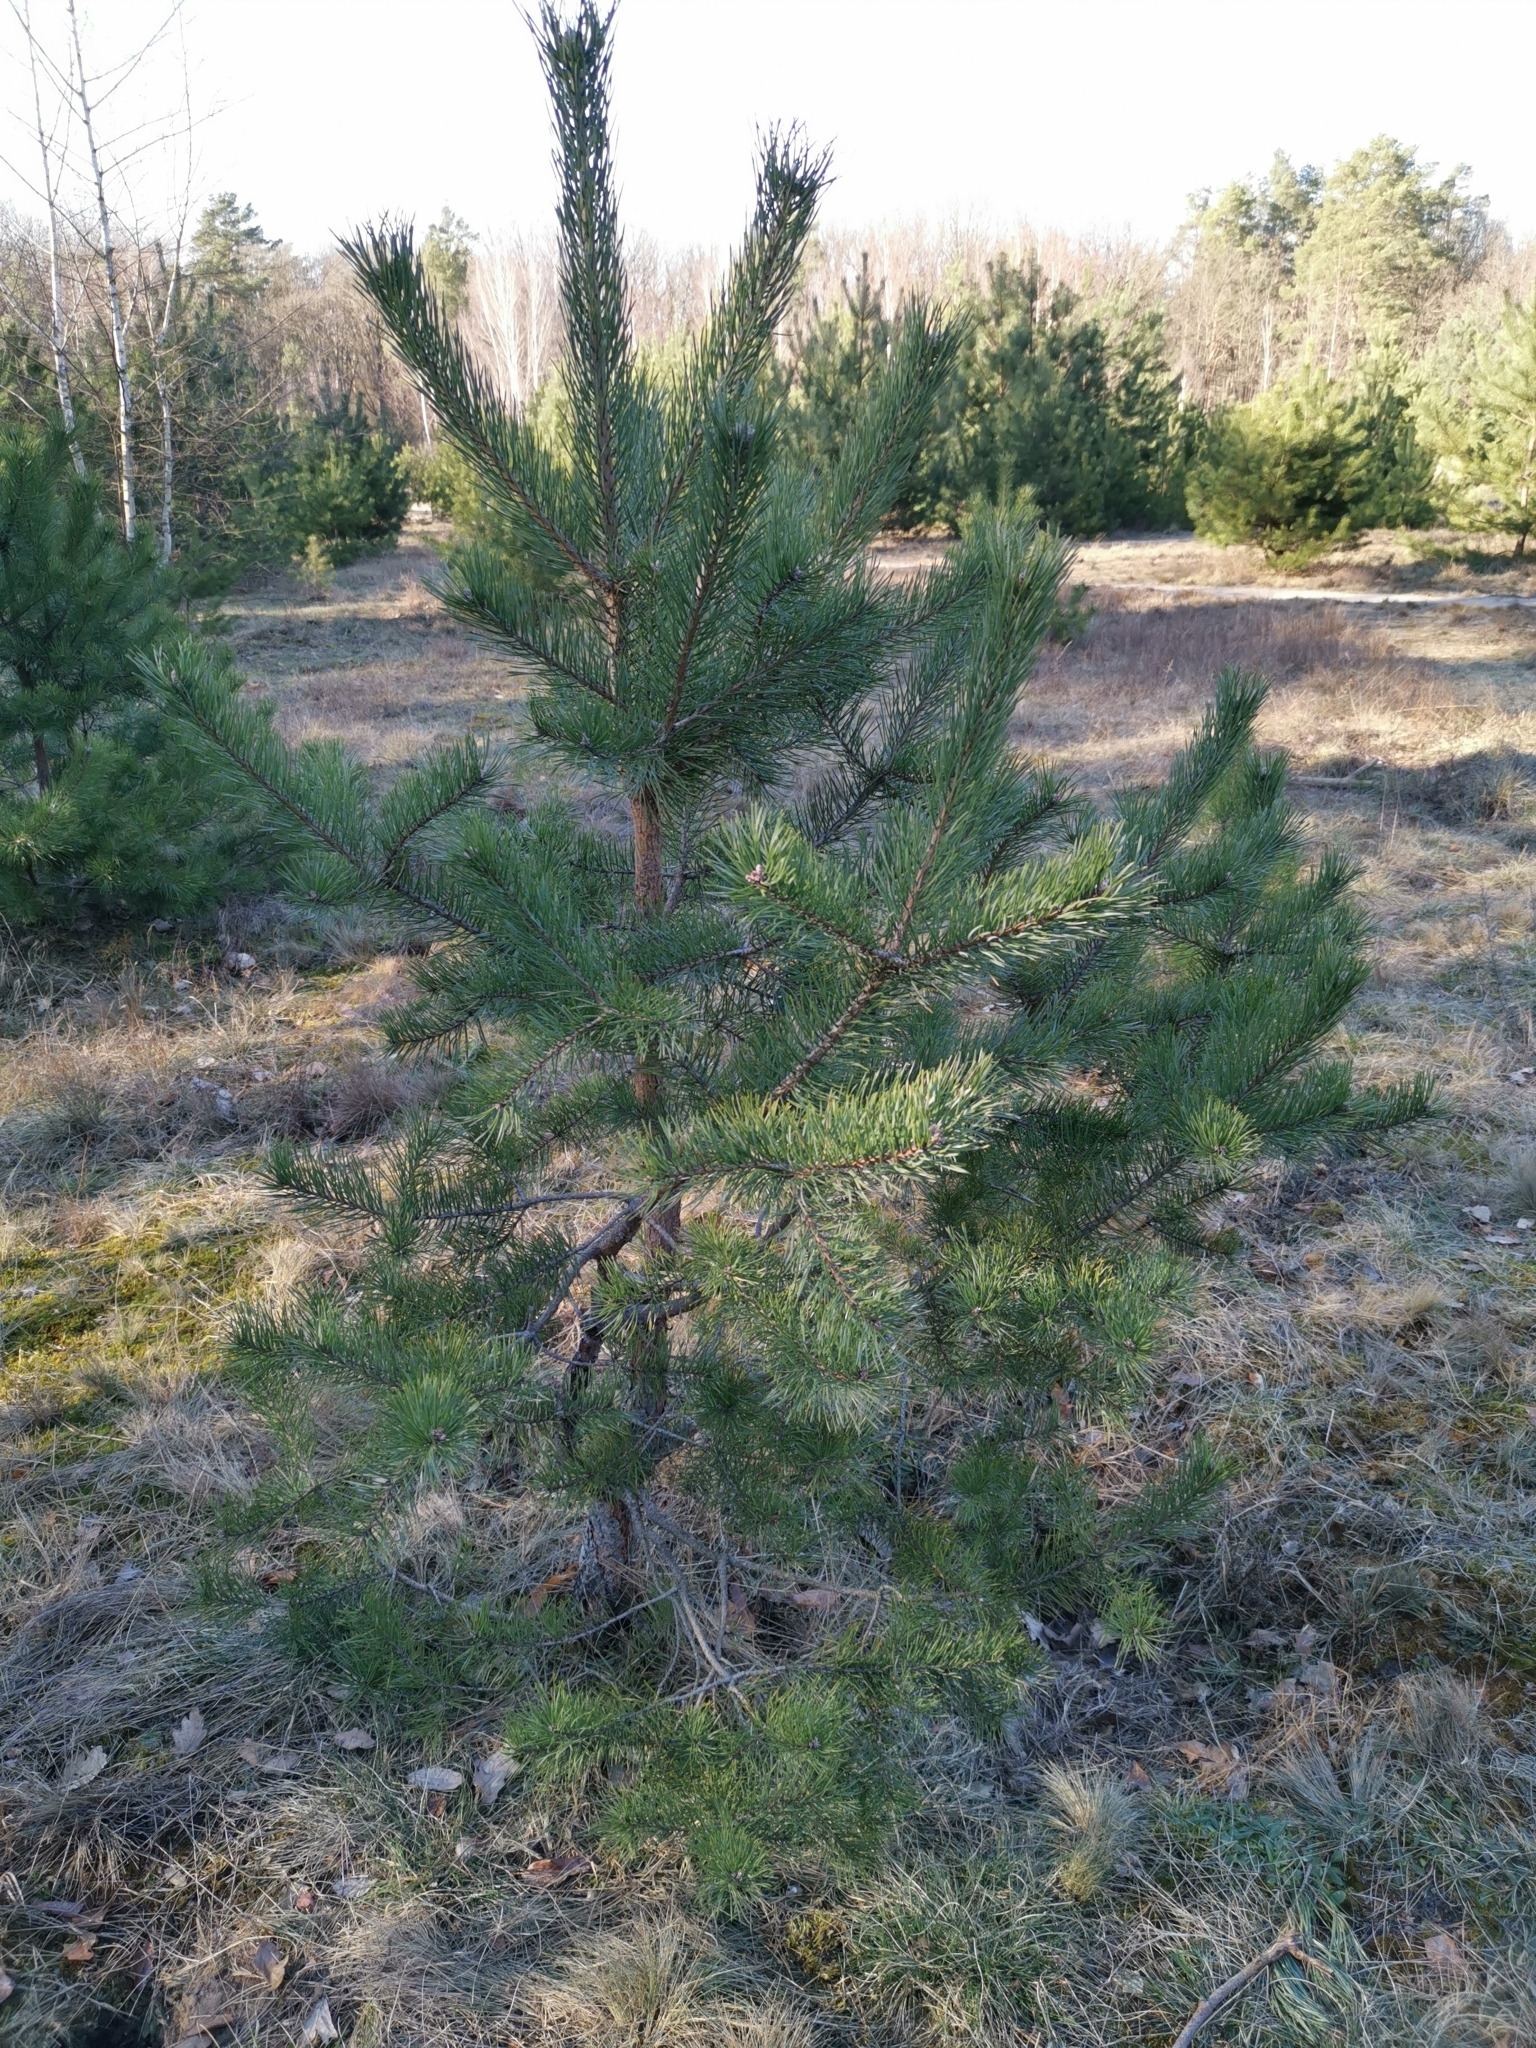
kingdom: Plantae
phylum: Tracheophyta
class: Pinopsida
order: Pinales
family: Pinaceae
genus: Pinus
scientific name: Pinus sylvestris
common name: Scots pine
